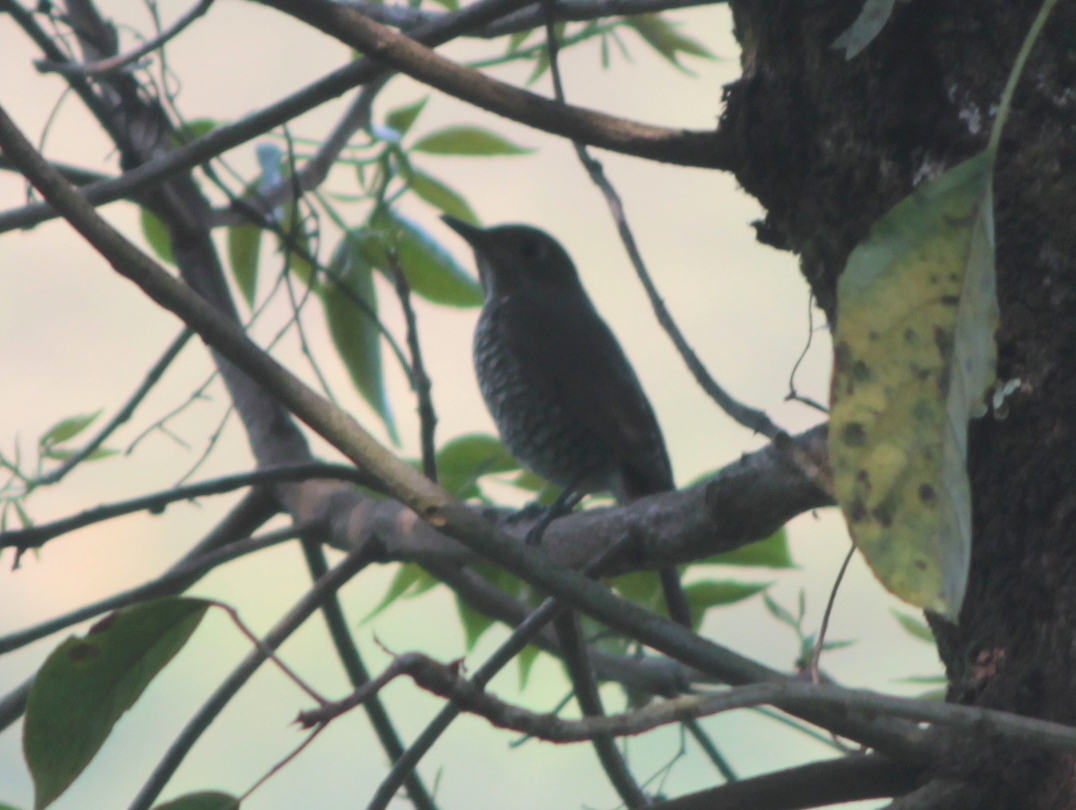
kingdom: Animalia
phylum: Chordata
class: Aves
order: Passeriformes
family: Muscicapidae
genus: Monticola
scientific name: Monticola cinclorhynchus
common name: Blue-capped rock thrush
